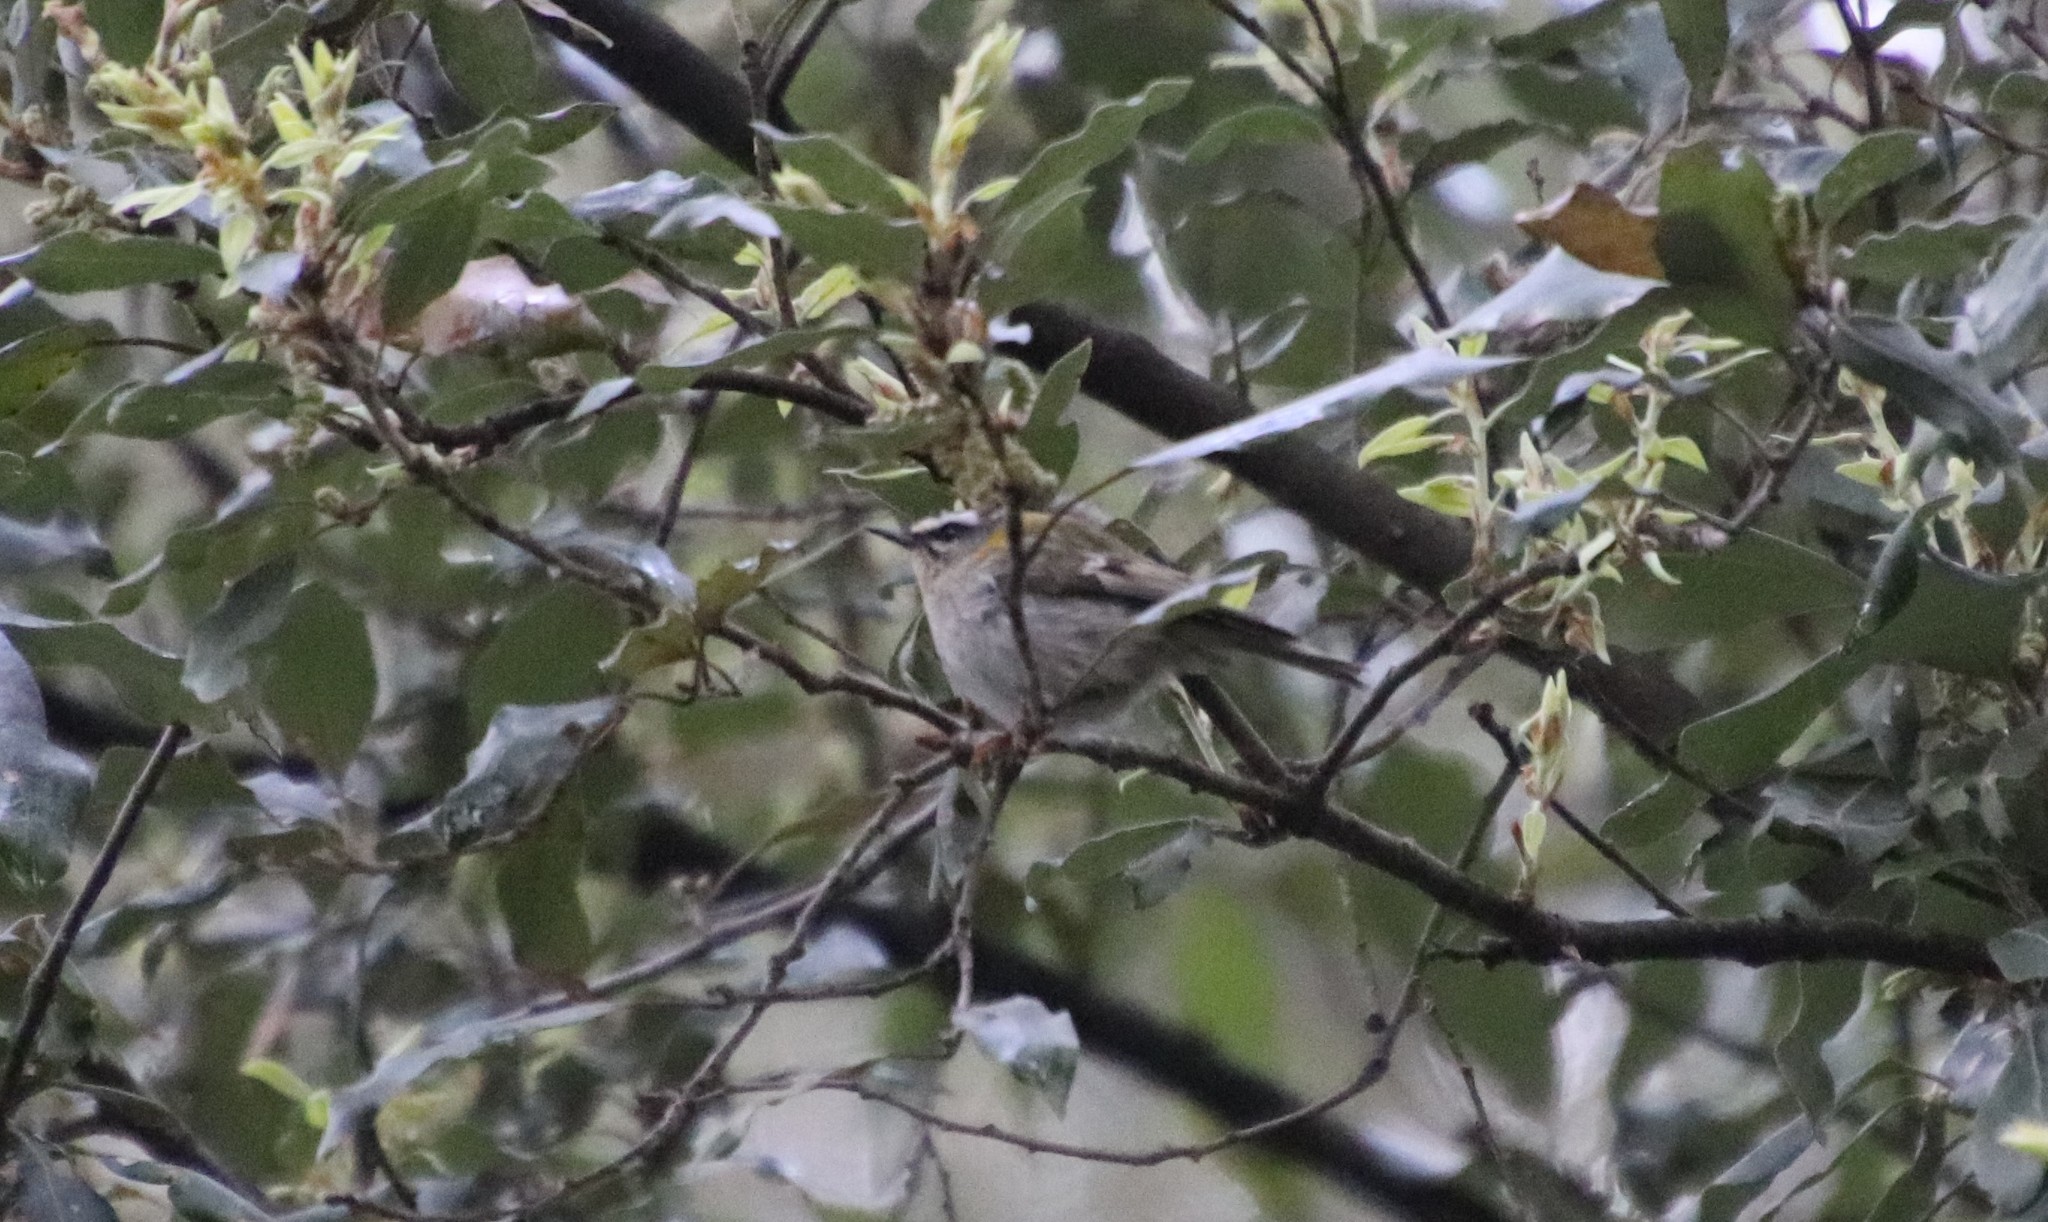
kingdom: Animalia
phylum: Chordata
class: Aves
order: Passeriformes
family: Regulidae
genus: Regulus
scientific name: Regulus ignicapilla
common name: Firecrest
